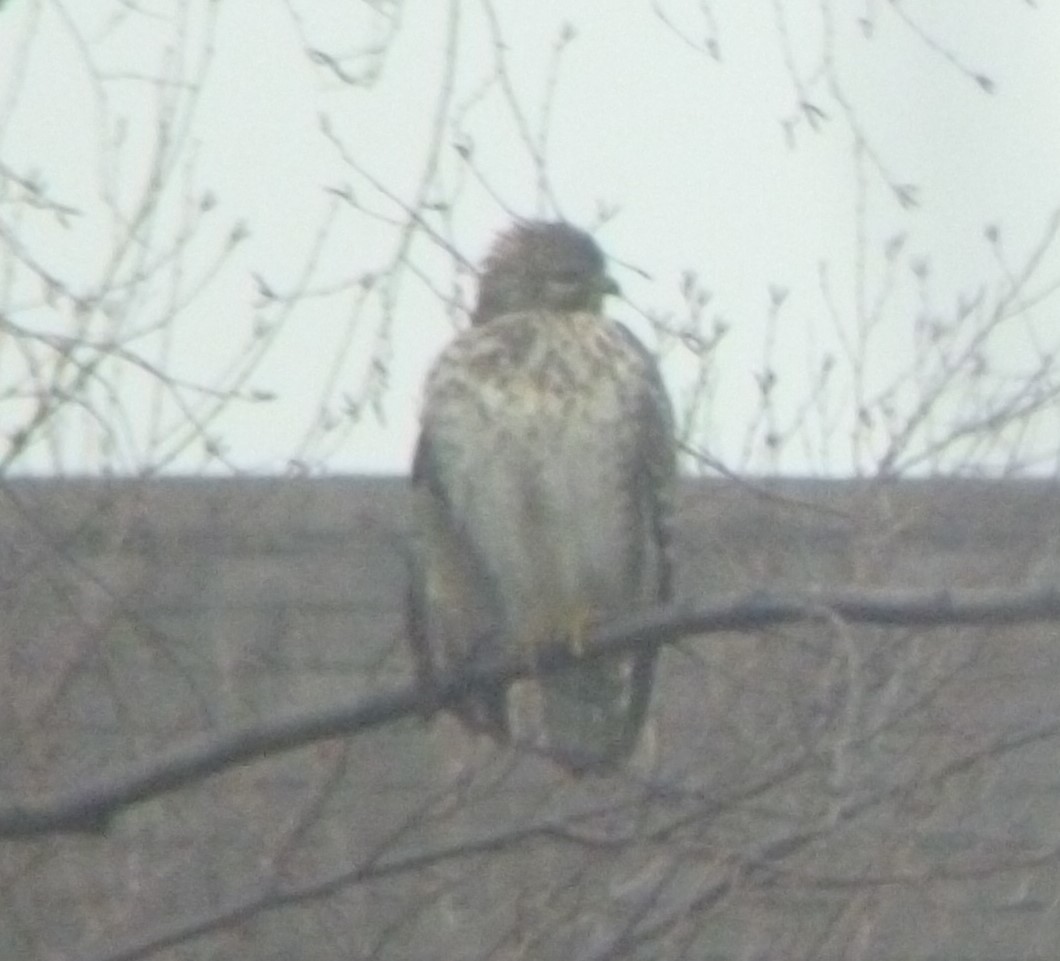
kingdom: Animalia
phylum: Chordata
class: Aves
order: Accipitriformes
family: Accipitridae
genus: Buteo
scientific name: Buteo lineatus
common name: Red-shouldered hawk
